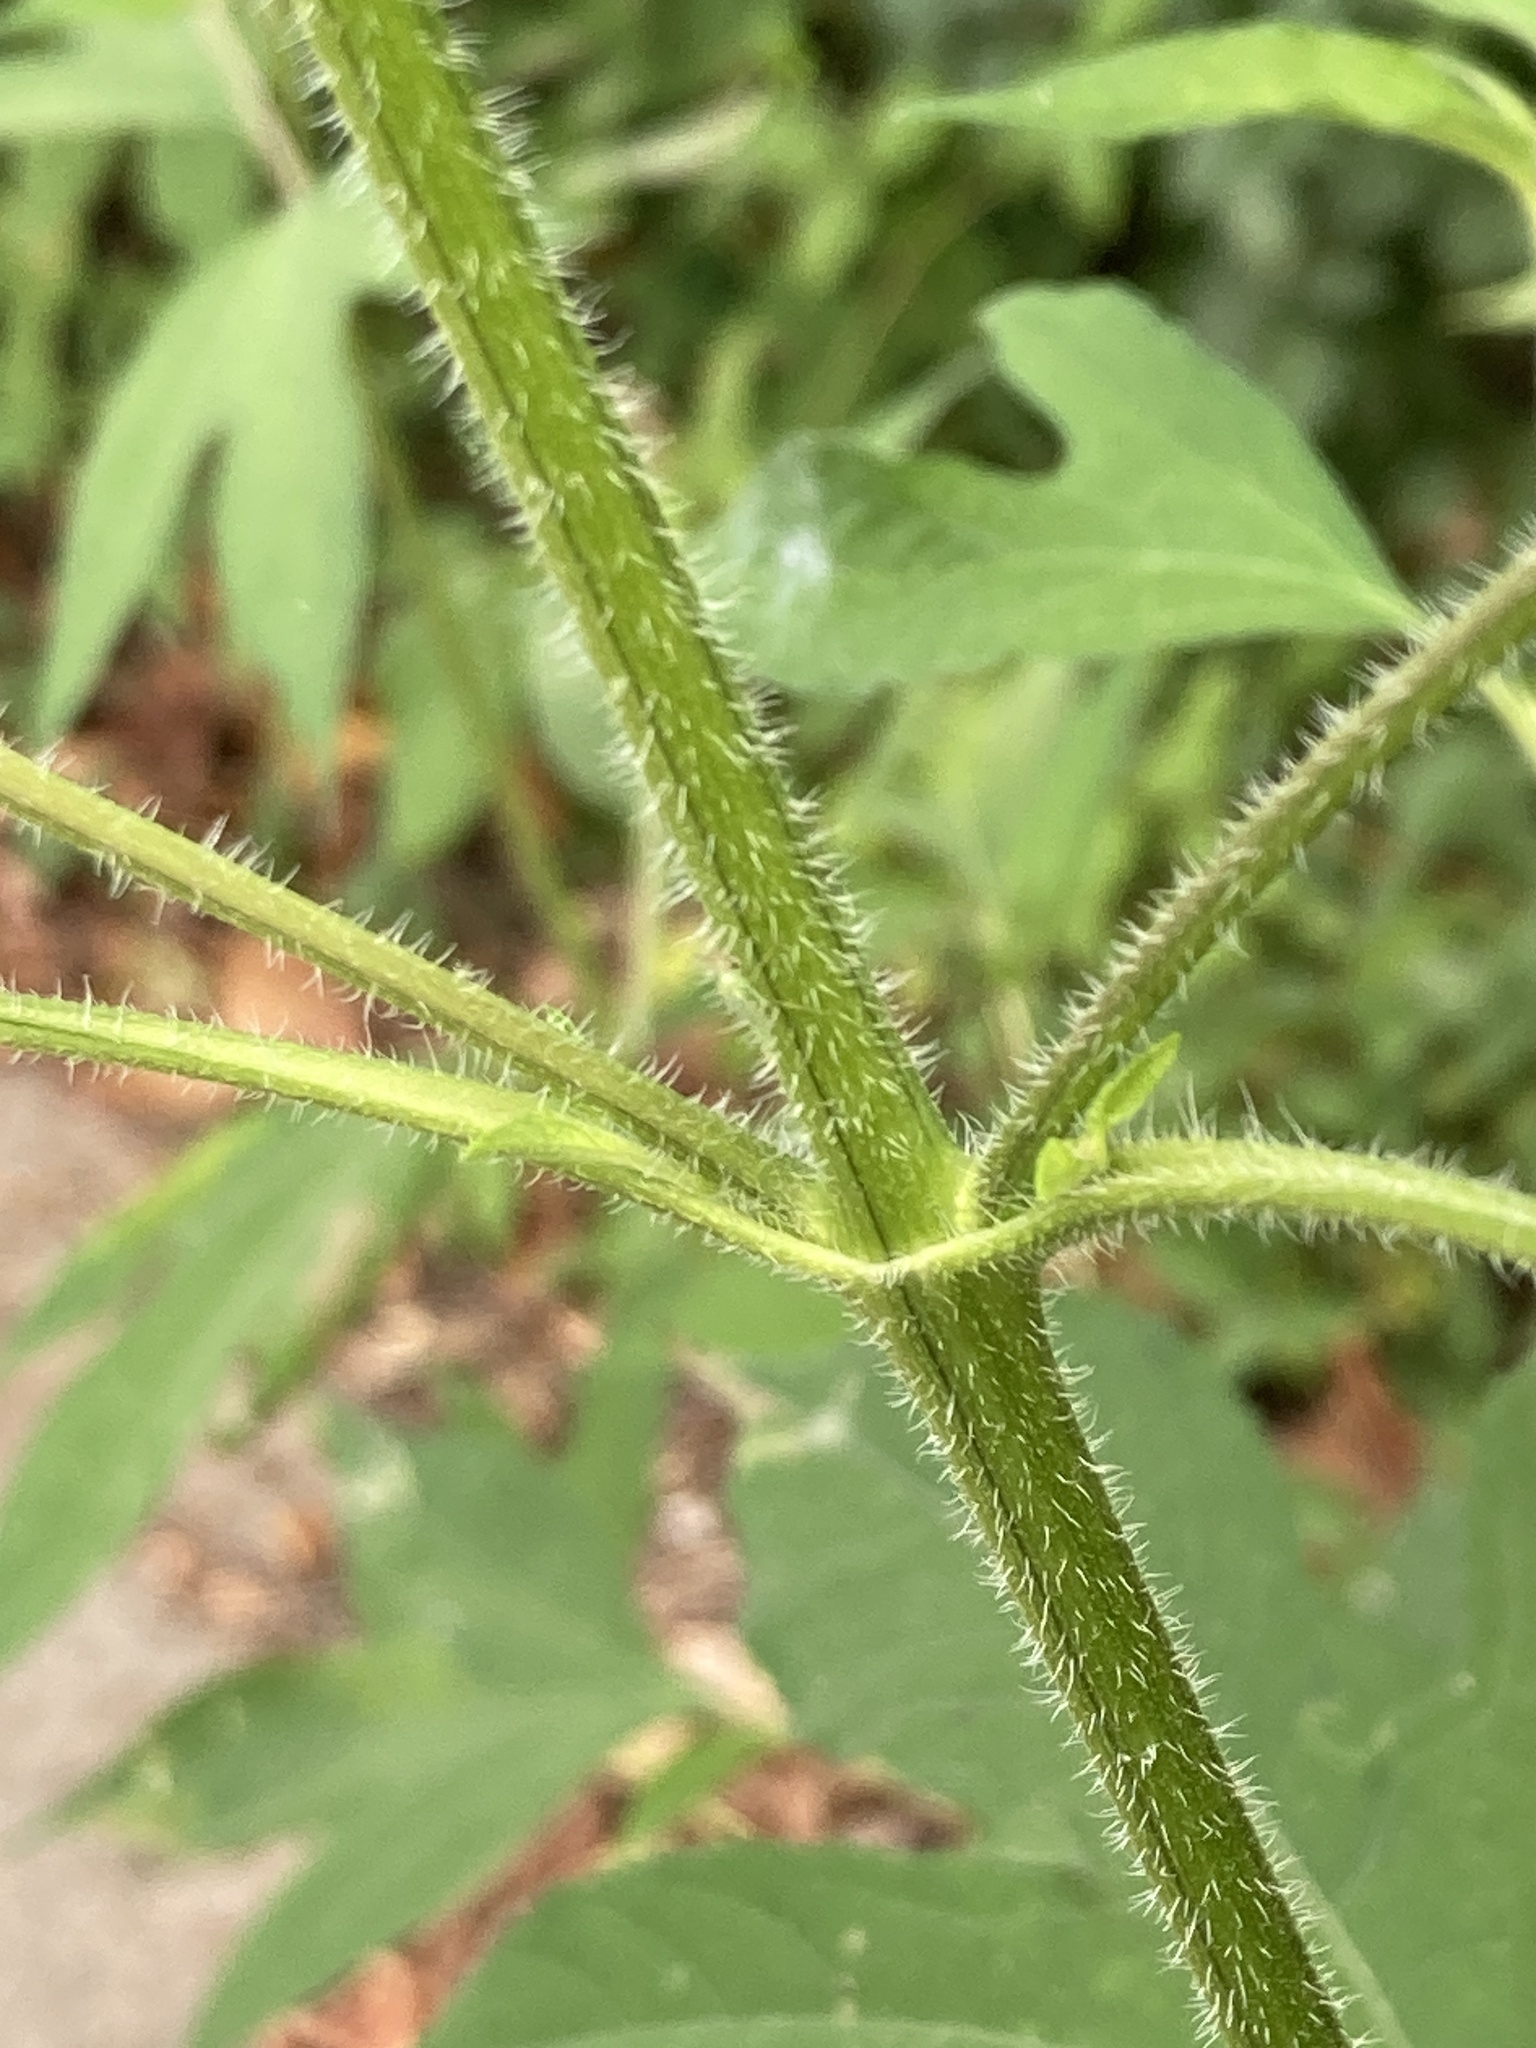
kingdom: Plantae
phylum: Tracheophyta
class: Magnoliopsida
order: Asterales
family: Asteraceae
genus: Ambrosia
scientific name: Ambrosia trifida
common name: Giant ragweed
